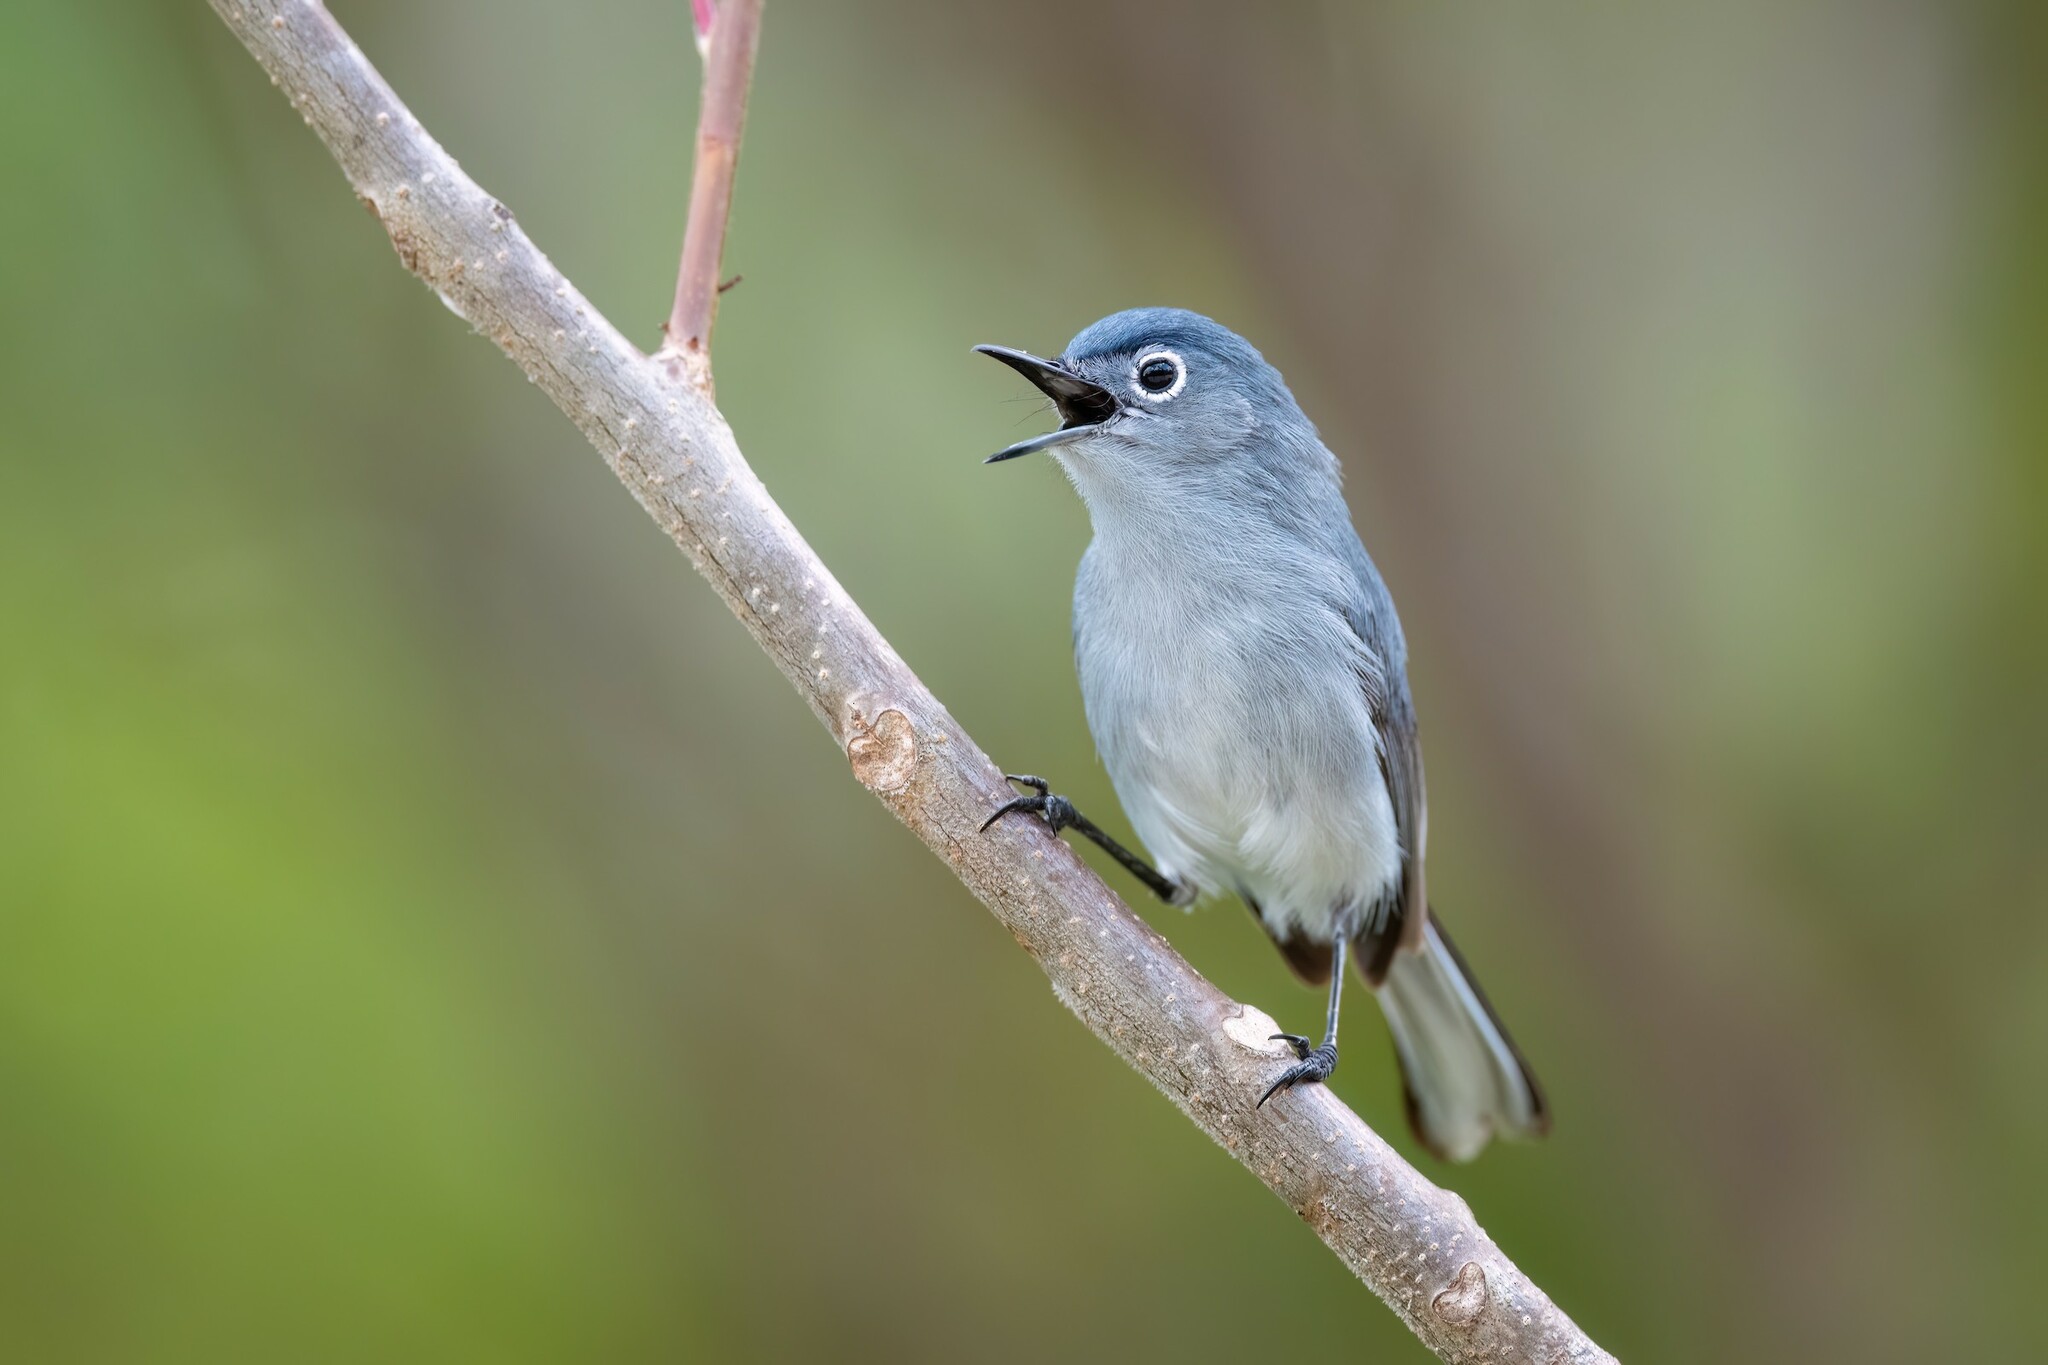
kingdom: Animalia
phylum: Chordata
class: Aves
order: Passeriformes
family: Polioptilidae
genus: Polioptila
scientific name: Polioptila caerulea
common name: Blue-gray gnatcatcher
